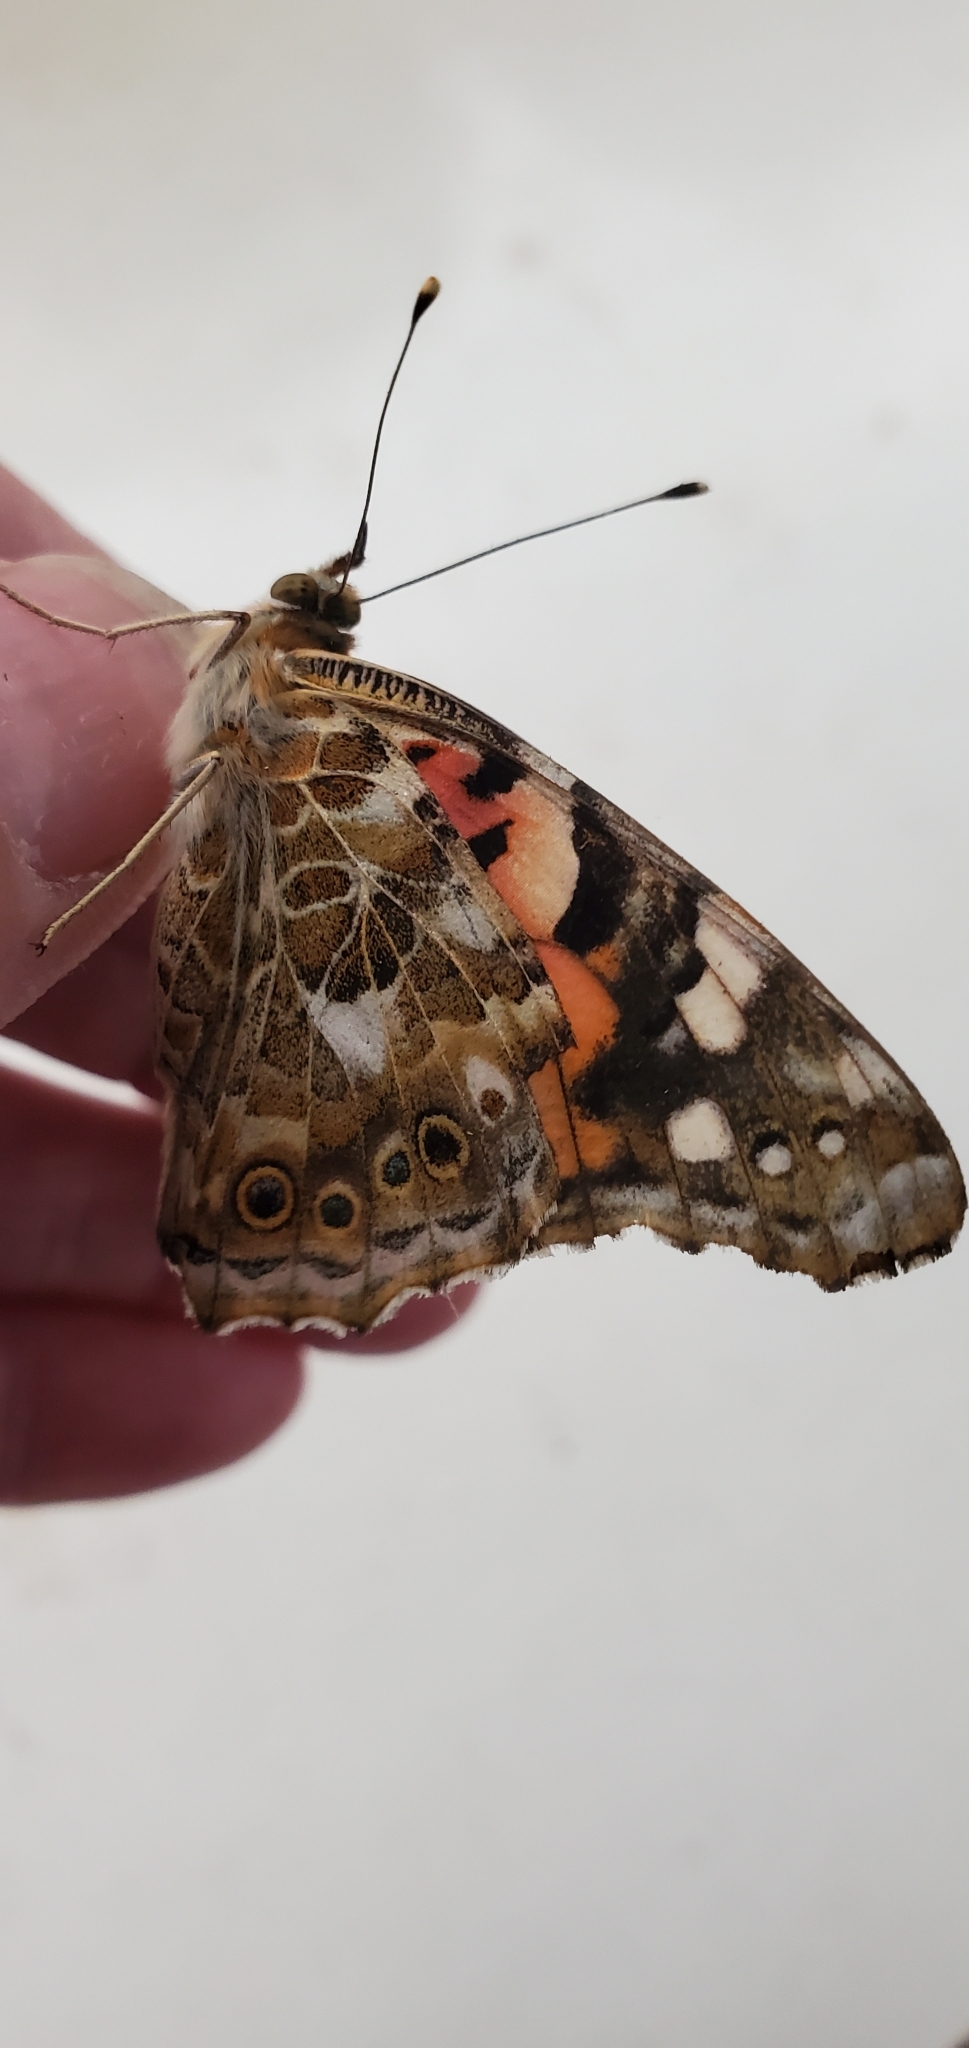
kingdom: Animalia
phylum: Arthropoda
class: Insecta
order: Lepidoptera
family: Nymphalidae
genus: Vanessa
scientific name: Vanessa cardui
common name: Painted lady
